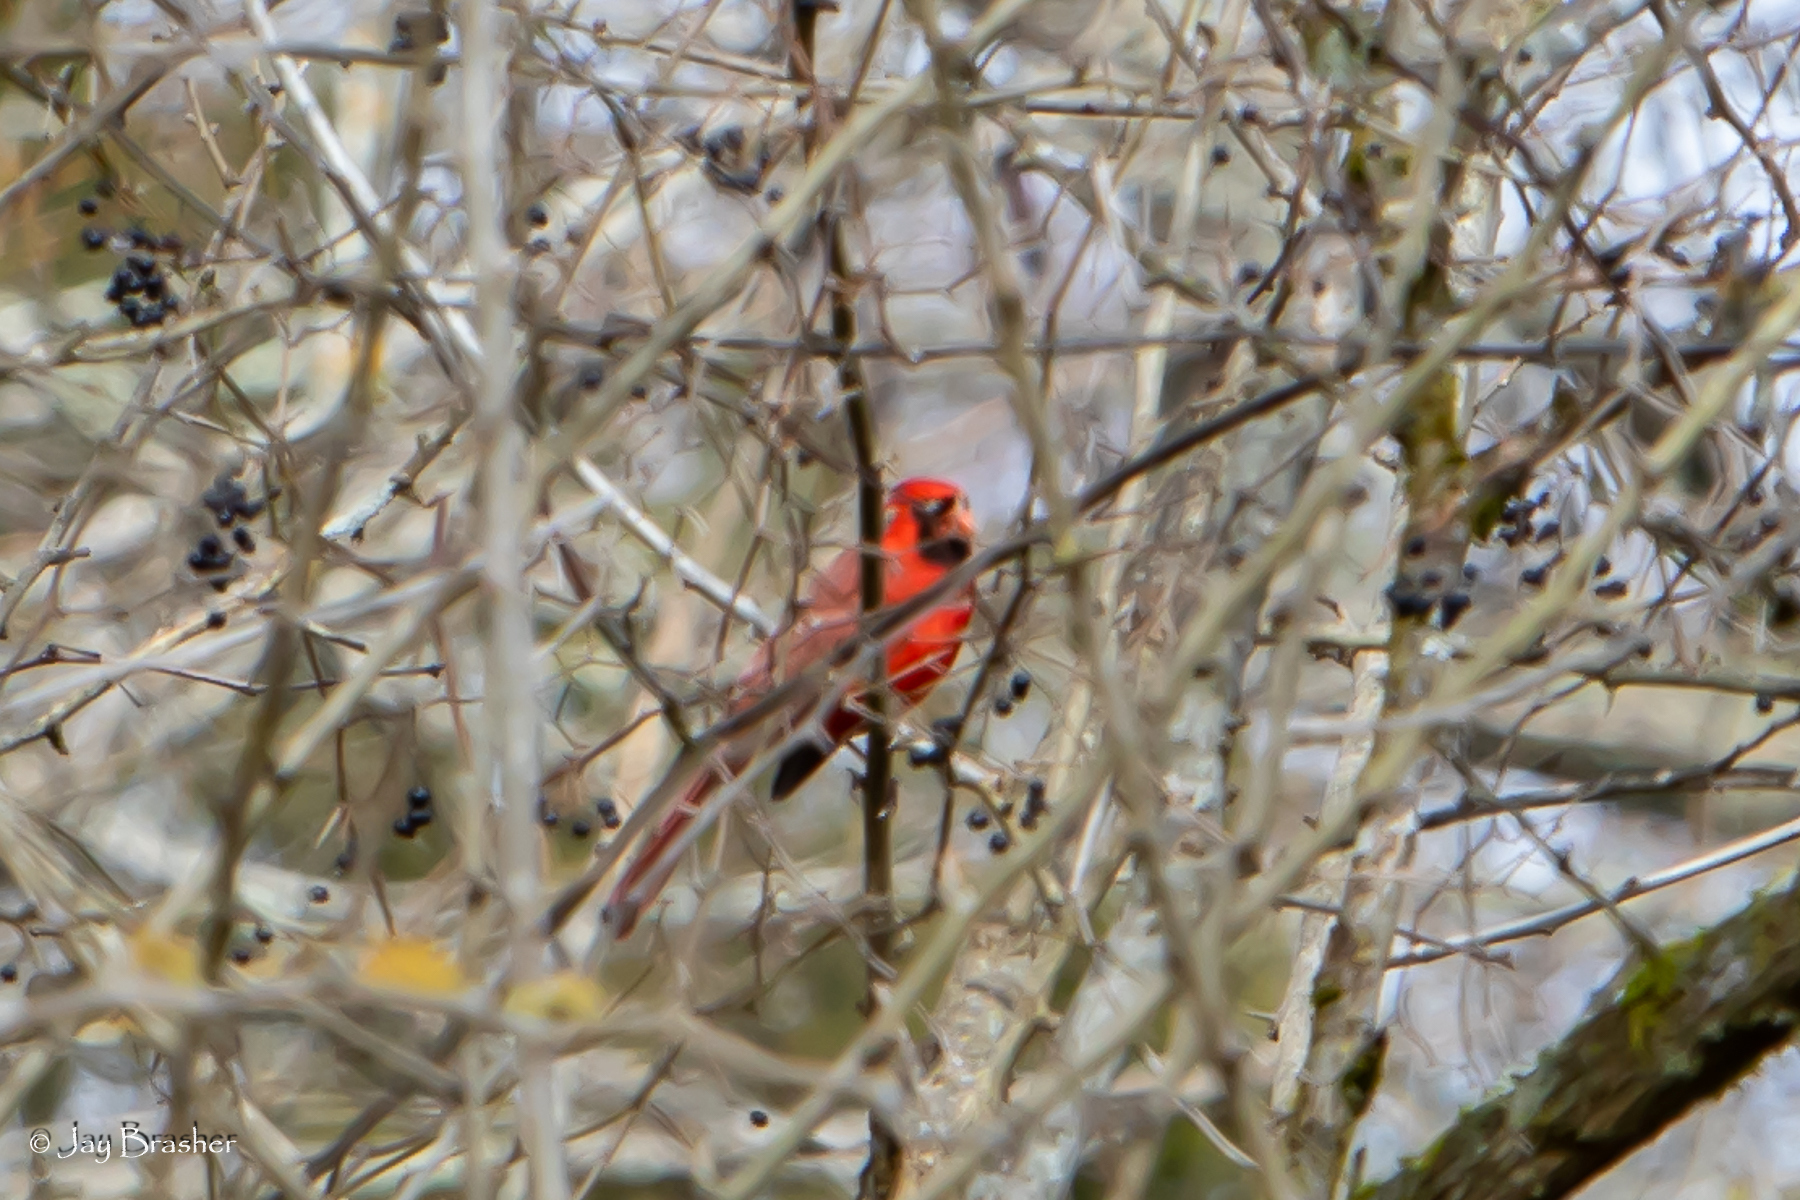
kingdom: Animalia
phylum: Chordata
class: Aves
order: Passeriformes
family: Cardinalidae
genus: Cardinalis
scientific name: Cardinalis cardinalis
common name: Northern cardinal
